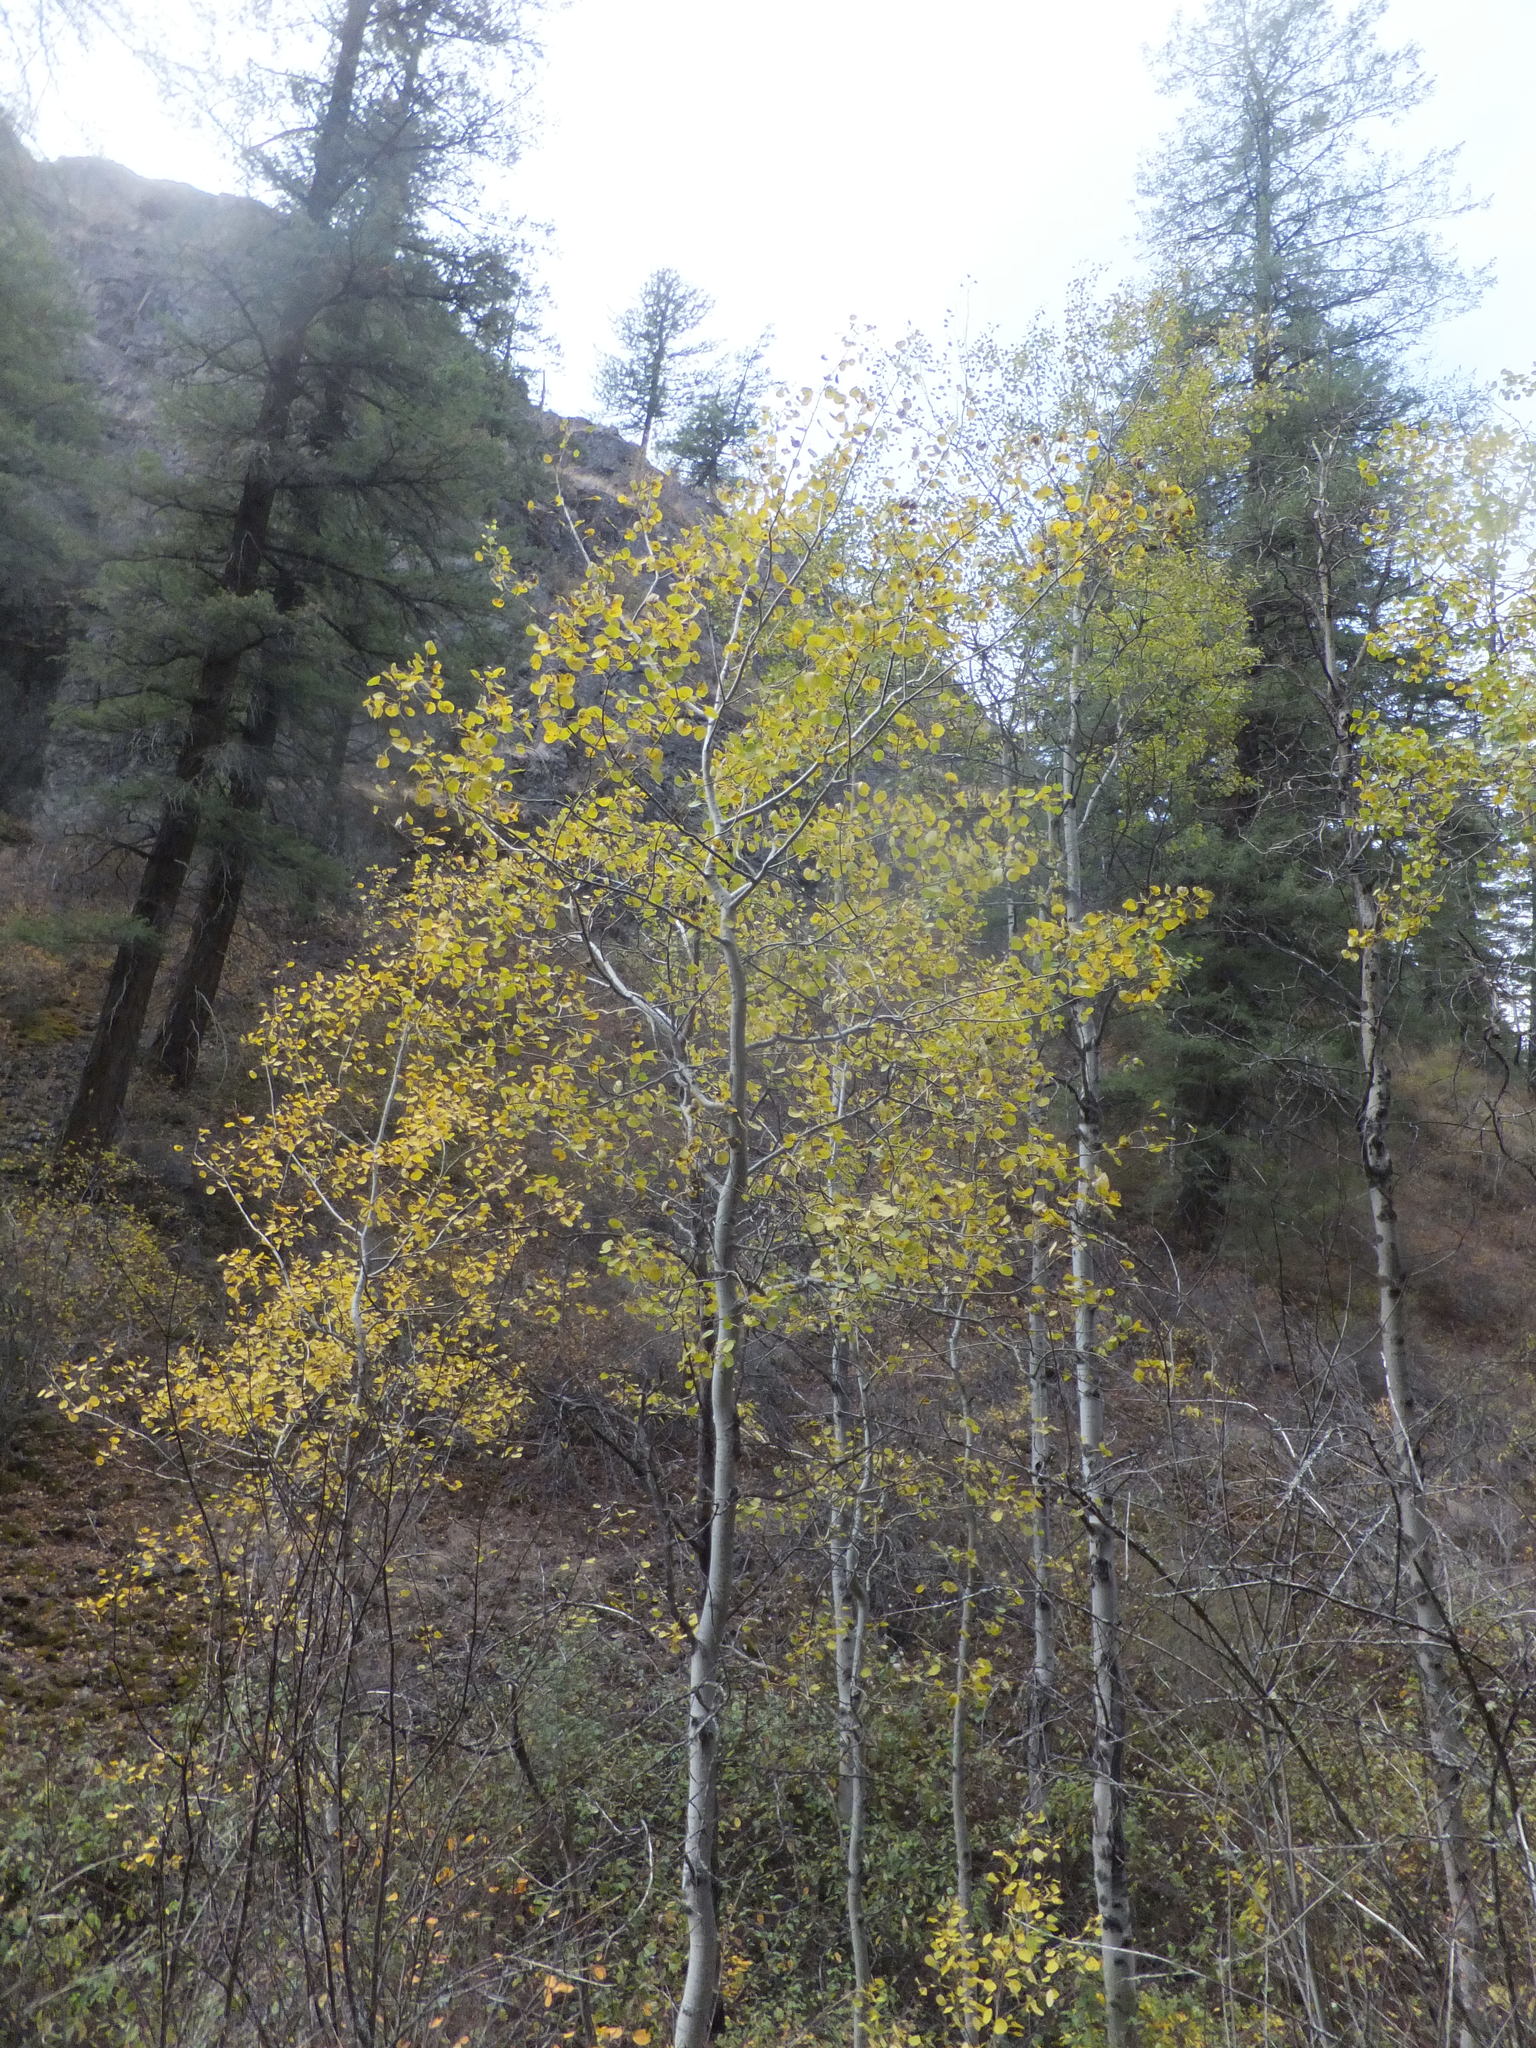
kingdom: Plantae
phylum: Tracheophyta
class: Magnoliopsida
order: Malpighiales
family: Salicaceae
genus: Populus
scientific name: Populus tremuloides
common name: Quaking aspen
